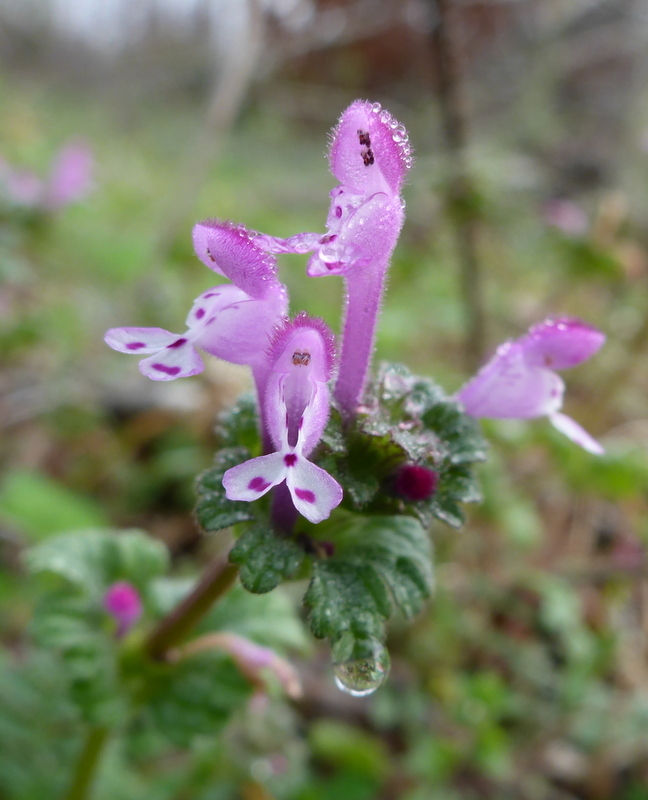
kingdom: Plantae
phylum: Tracheophyta
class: Magnoliopsida
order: Lamiales
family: Lamiaceae
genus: Lamium
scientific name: Lamium amplexicaule
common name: Henbit dead-nettle
